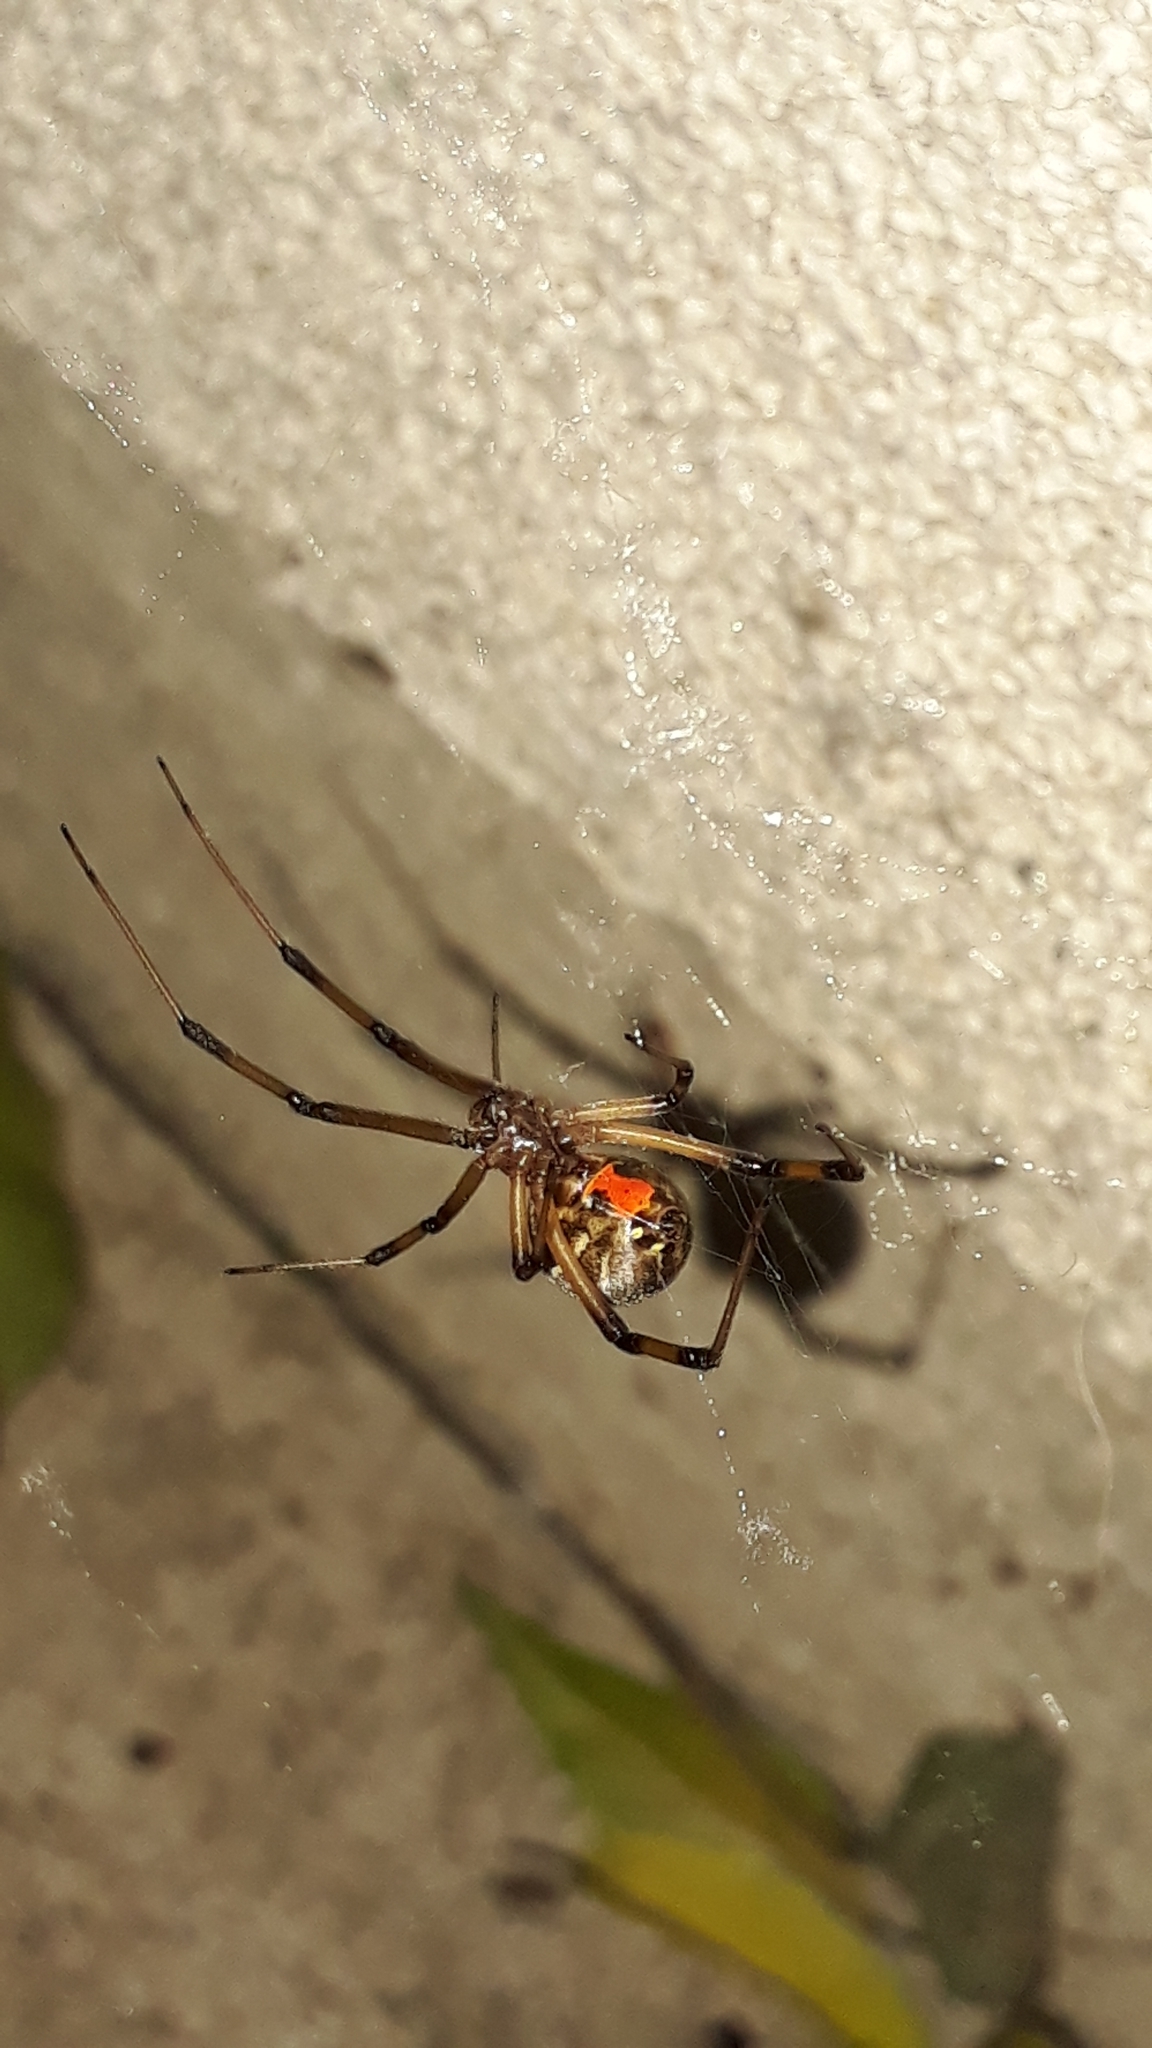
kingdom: Animalia
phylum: Arthropoda
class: Arachnida
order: Araneae
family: Theridiidae
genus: Latrodectus
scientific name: Latrodectus geometricus
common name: Brown widow spider
